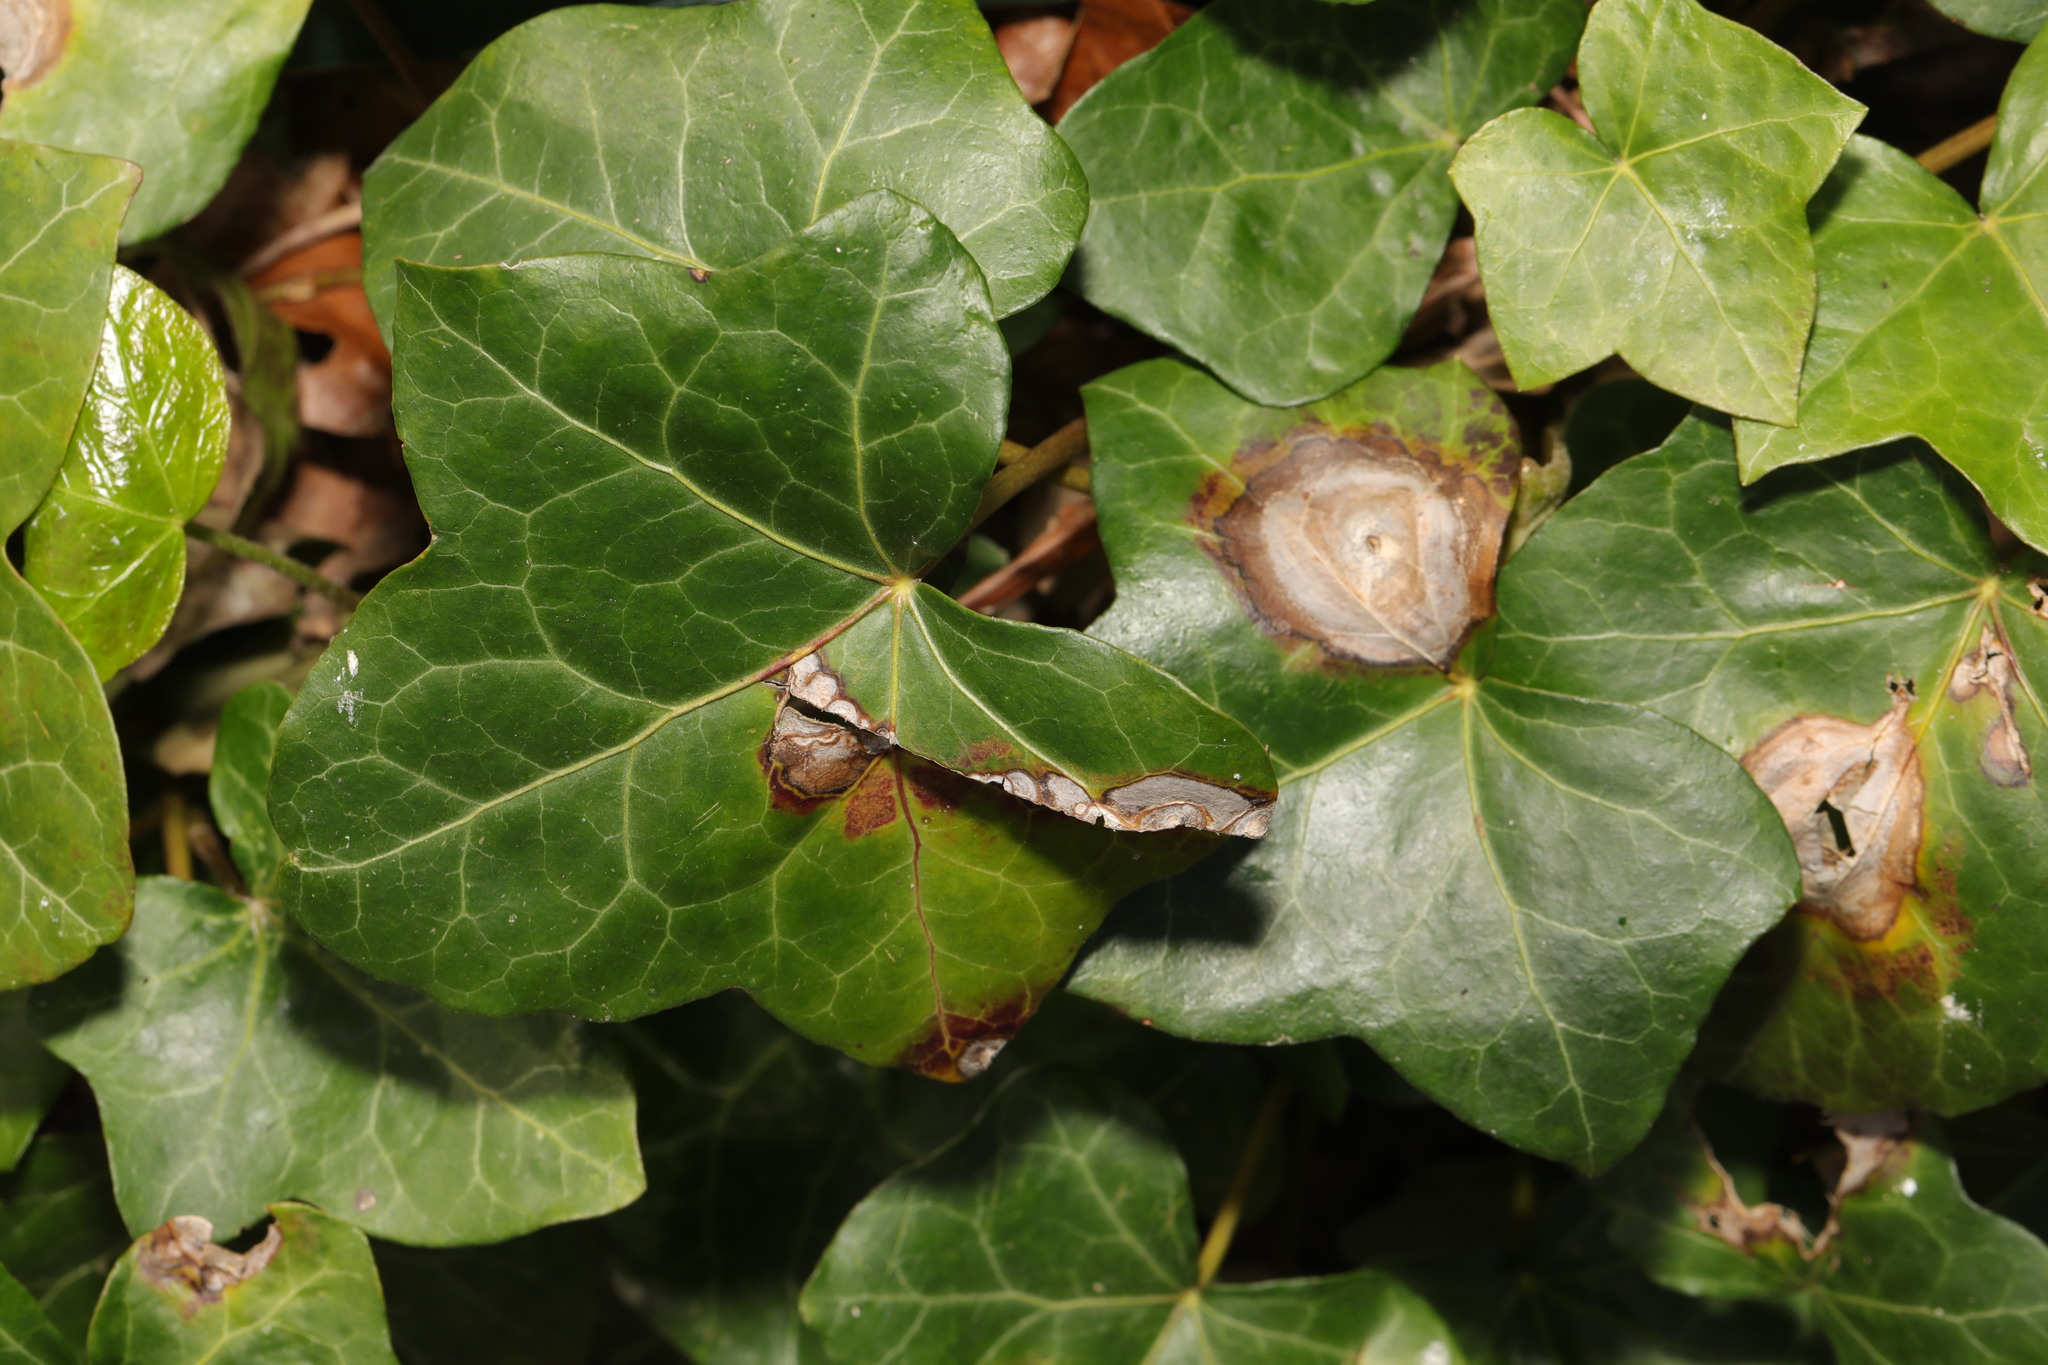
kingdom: Plantae
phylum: Tracheophyta
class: Magnoliopsida
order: Apiales
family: Araliaceae
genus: Hedera
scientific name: Hedera helix
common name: Ivy
